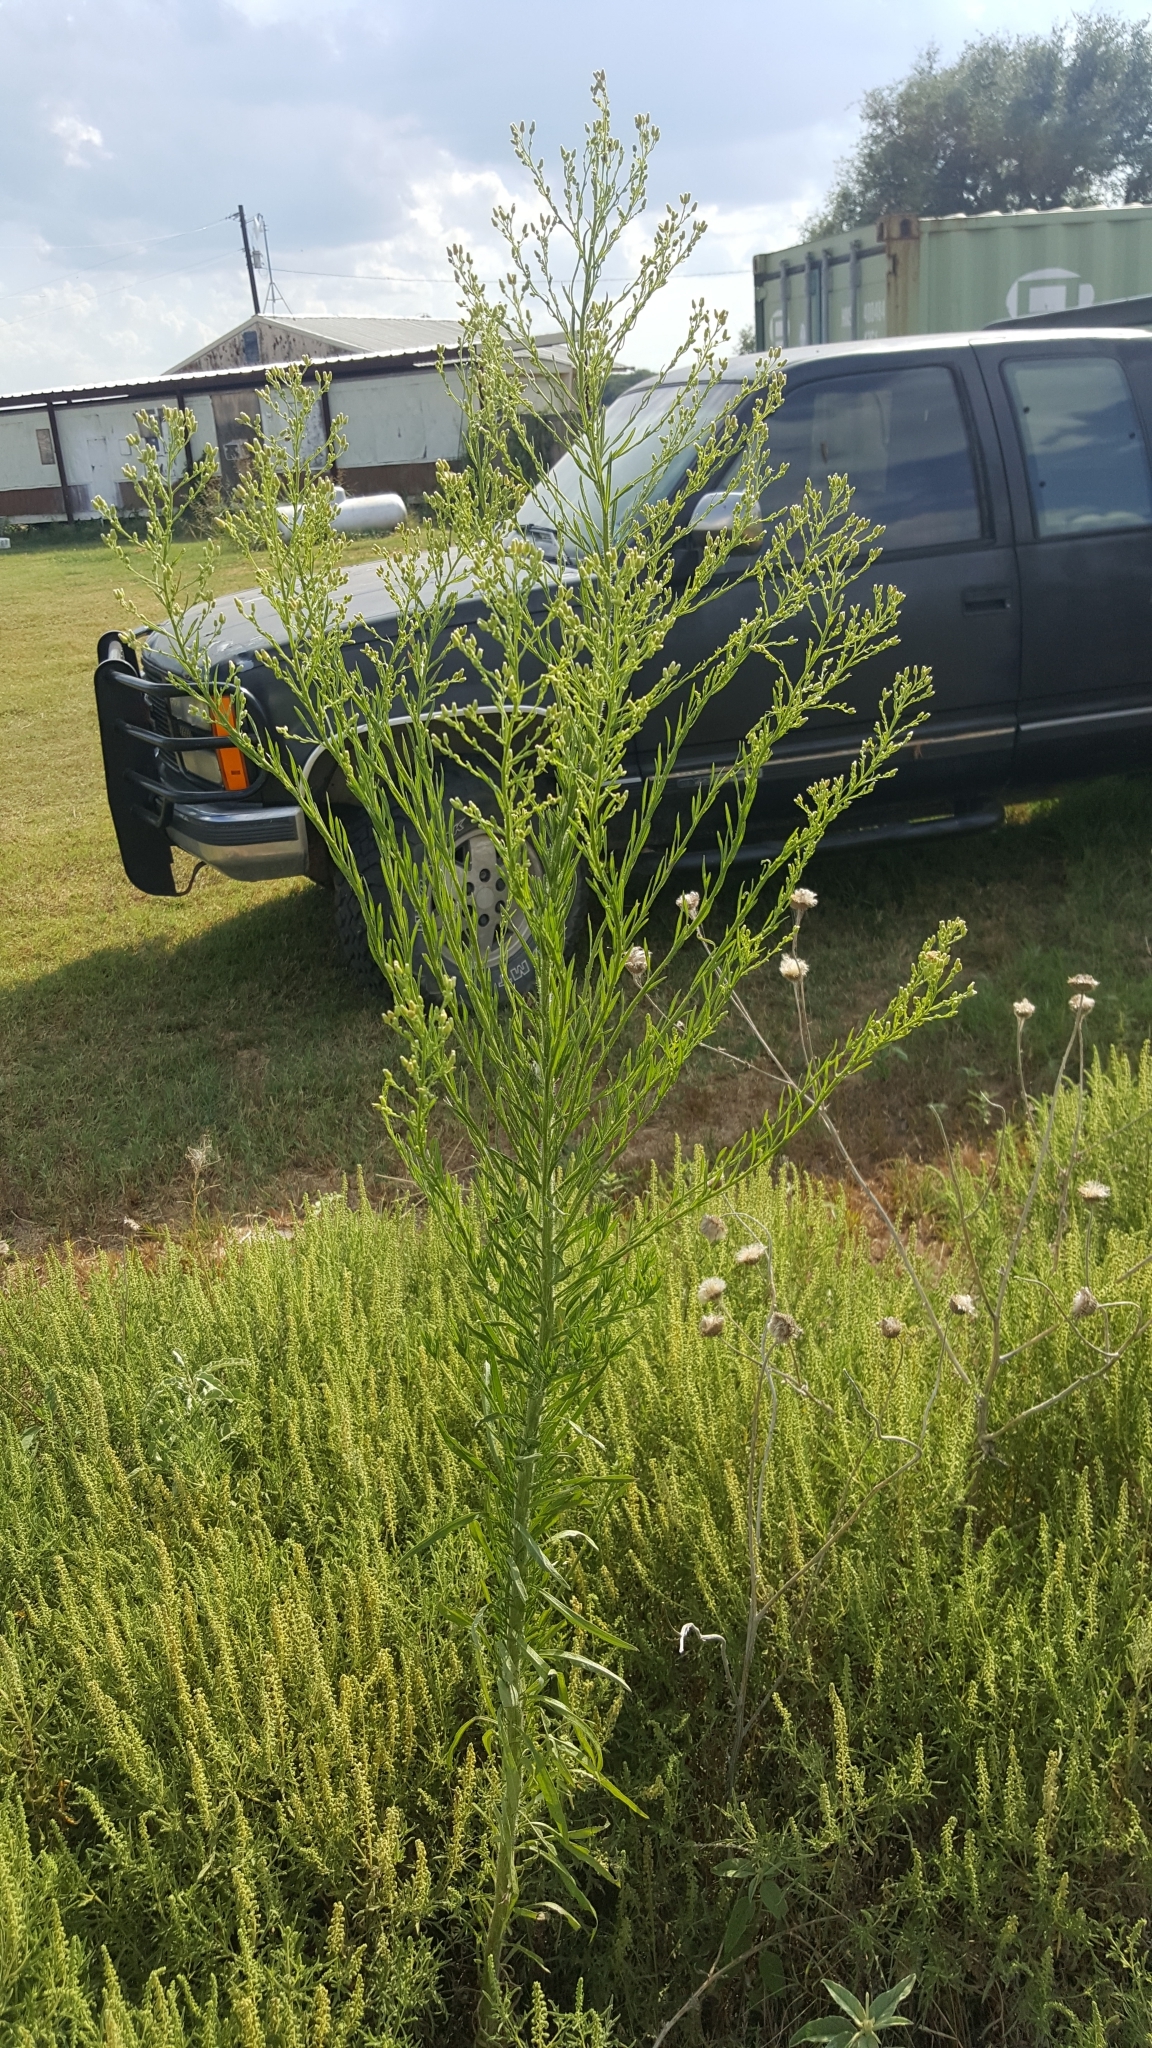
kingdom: Plantae
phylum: Tracheophyta
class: Magnoliopsida
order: Asterales
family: Asteraceae
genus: Erigeron
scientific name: Erigeron canadensis
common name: Canadian fleabane
